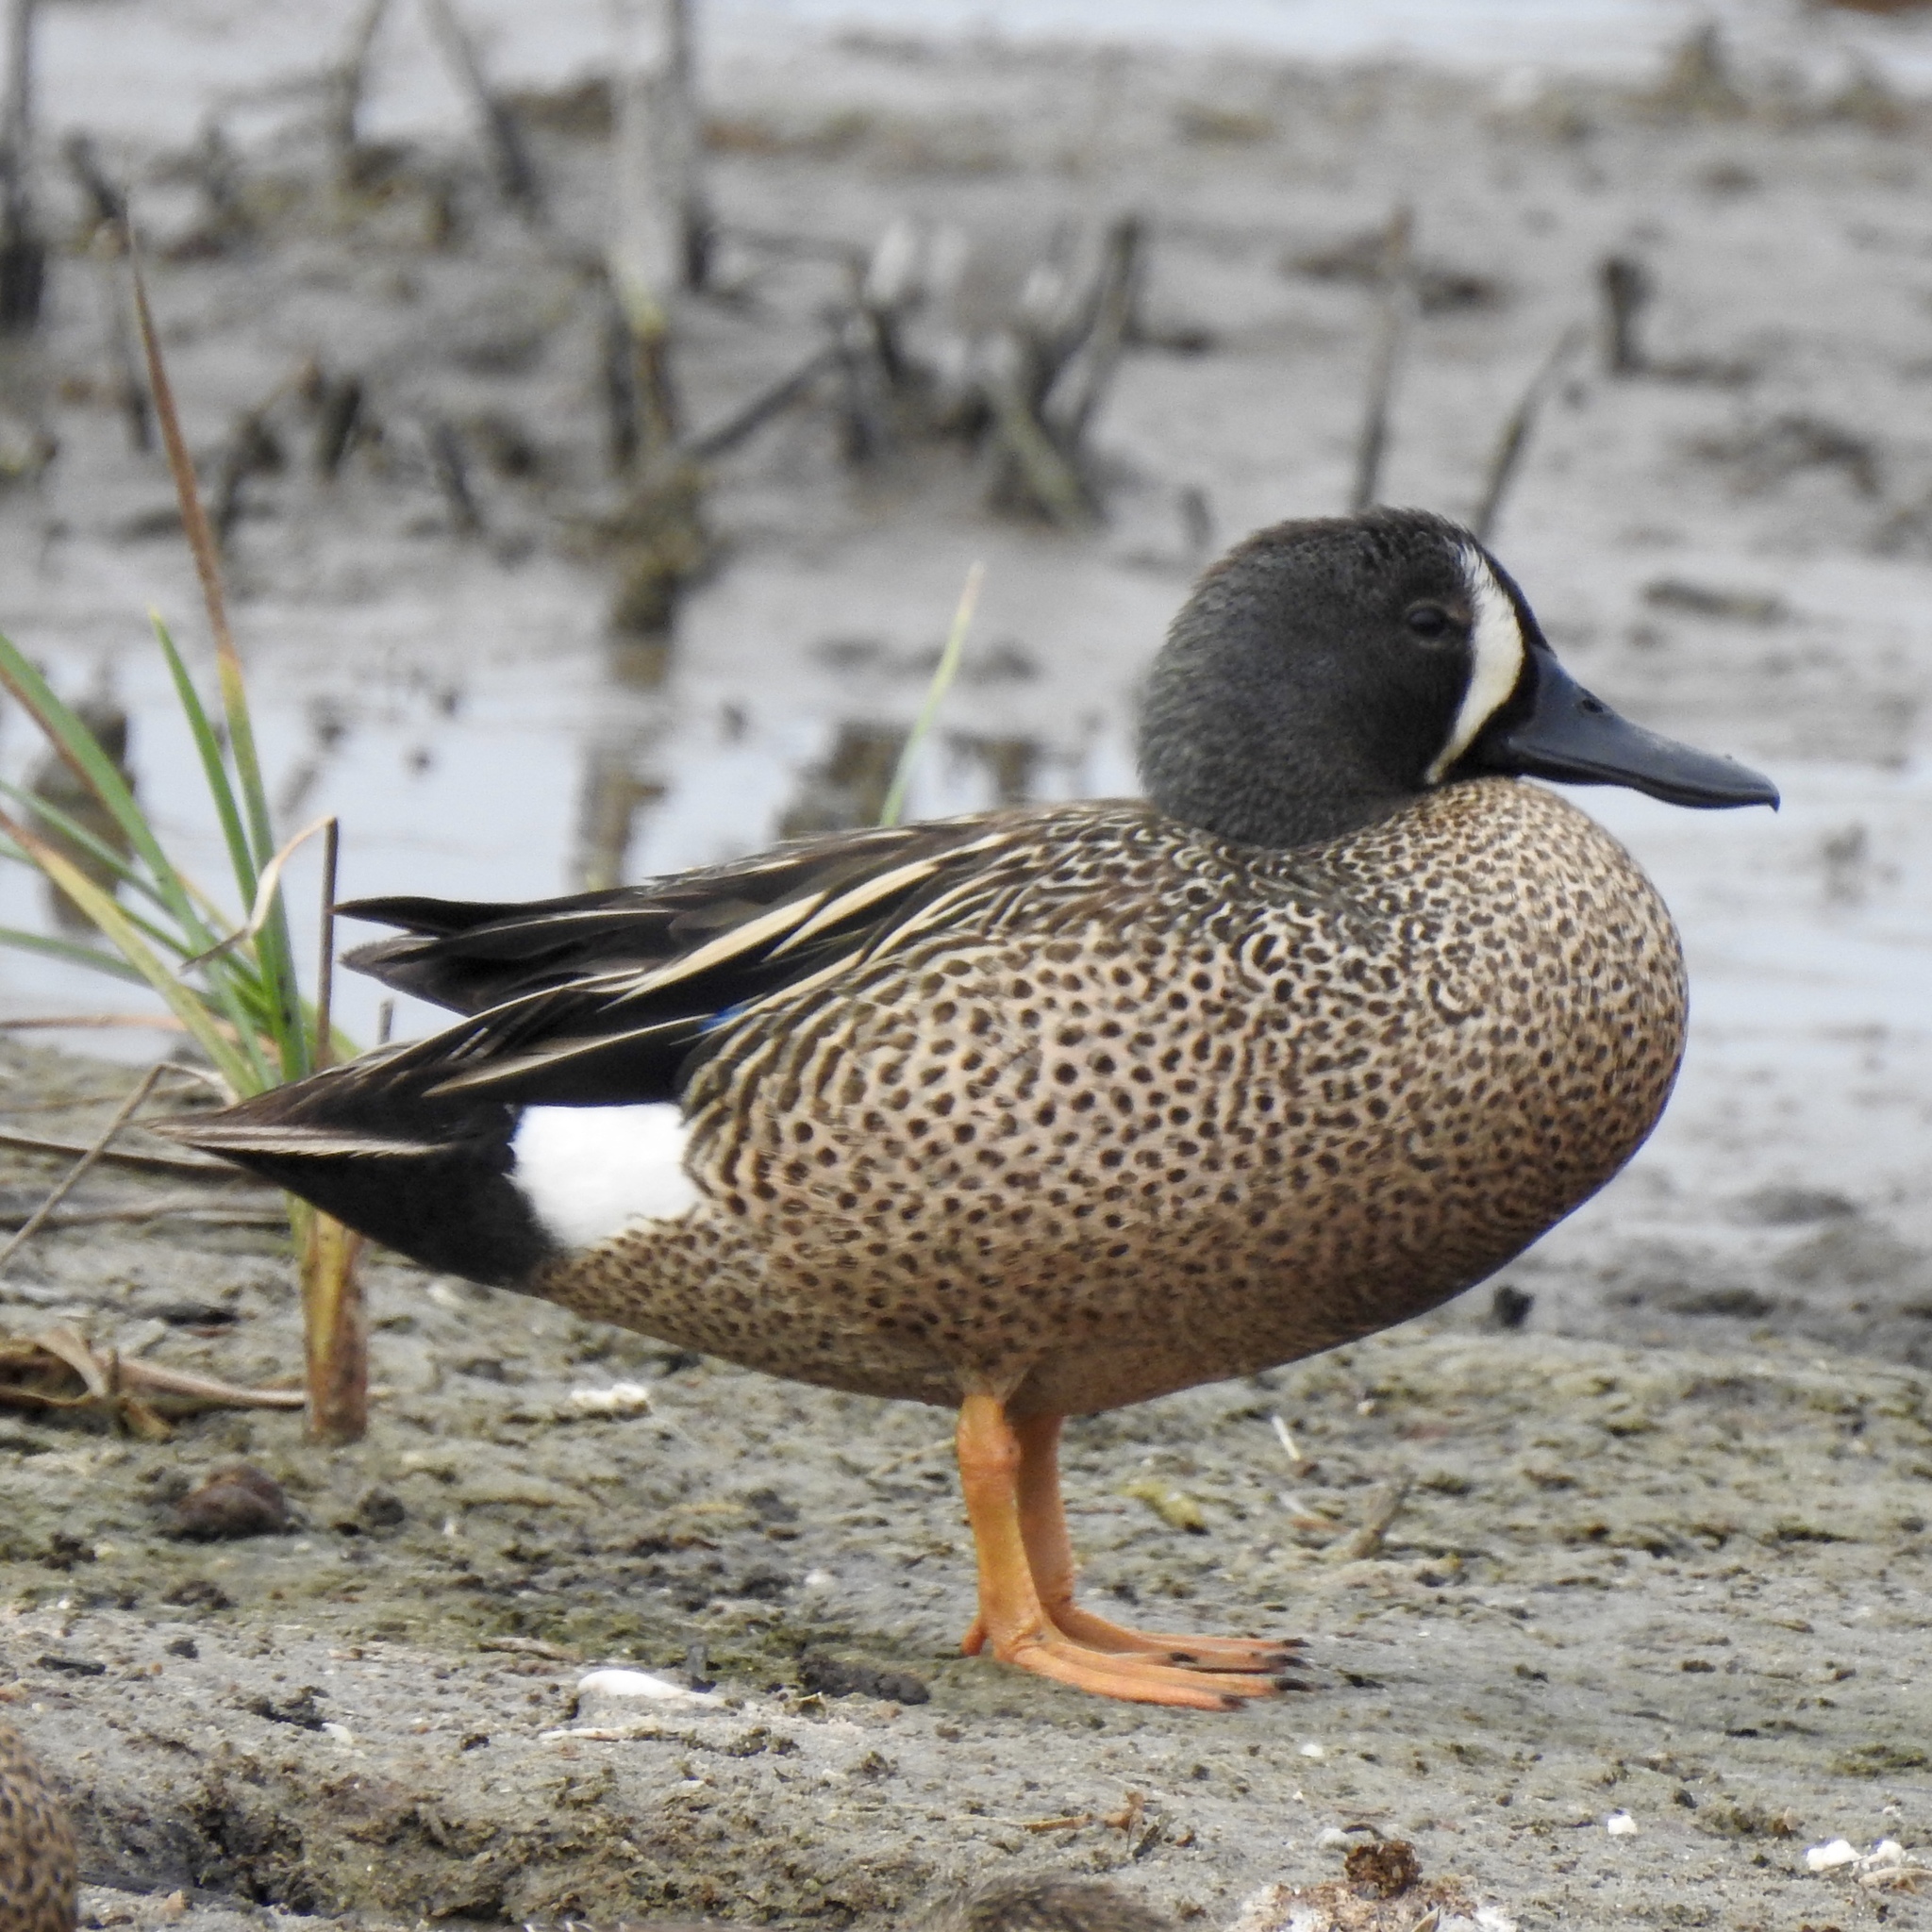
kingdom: Animalia
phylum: Chordata
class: Aves
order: Anseriformes
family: Anatidae
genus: Spatula
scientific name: Spatula discors
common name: Blue-winged teal
